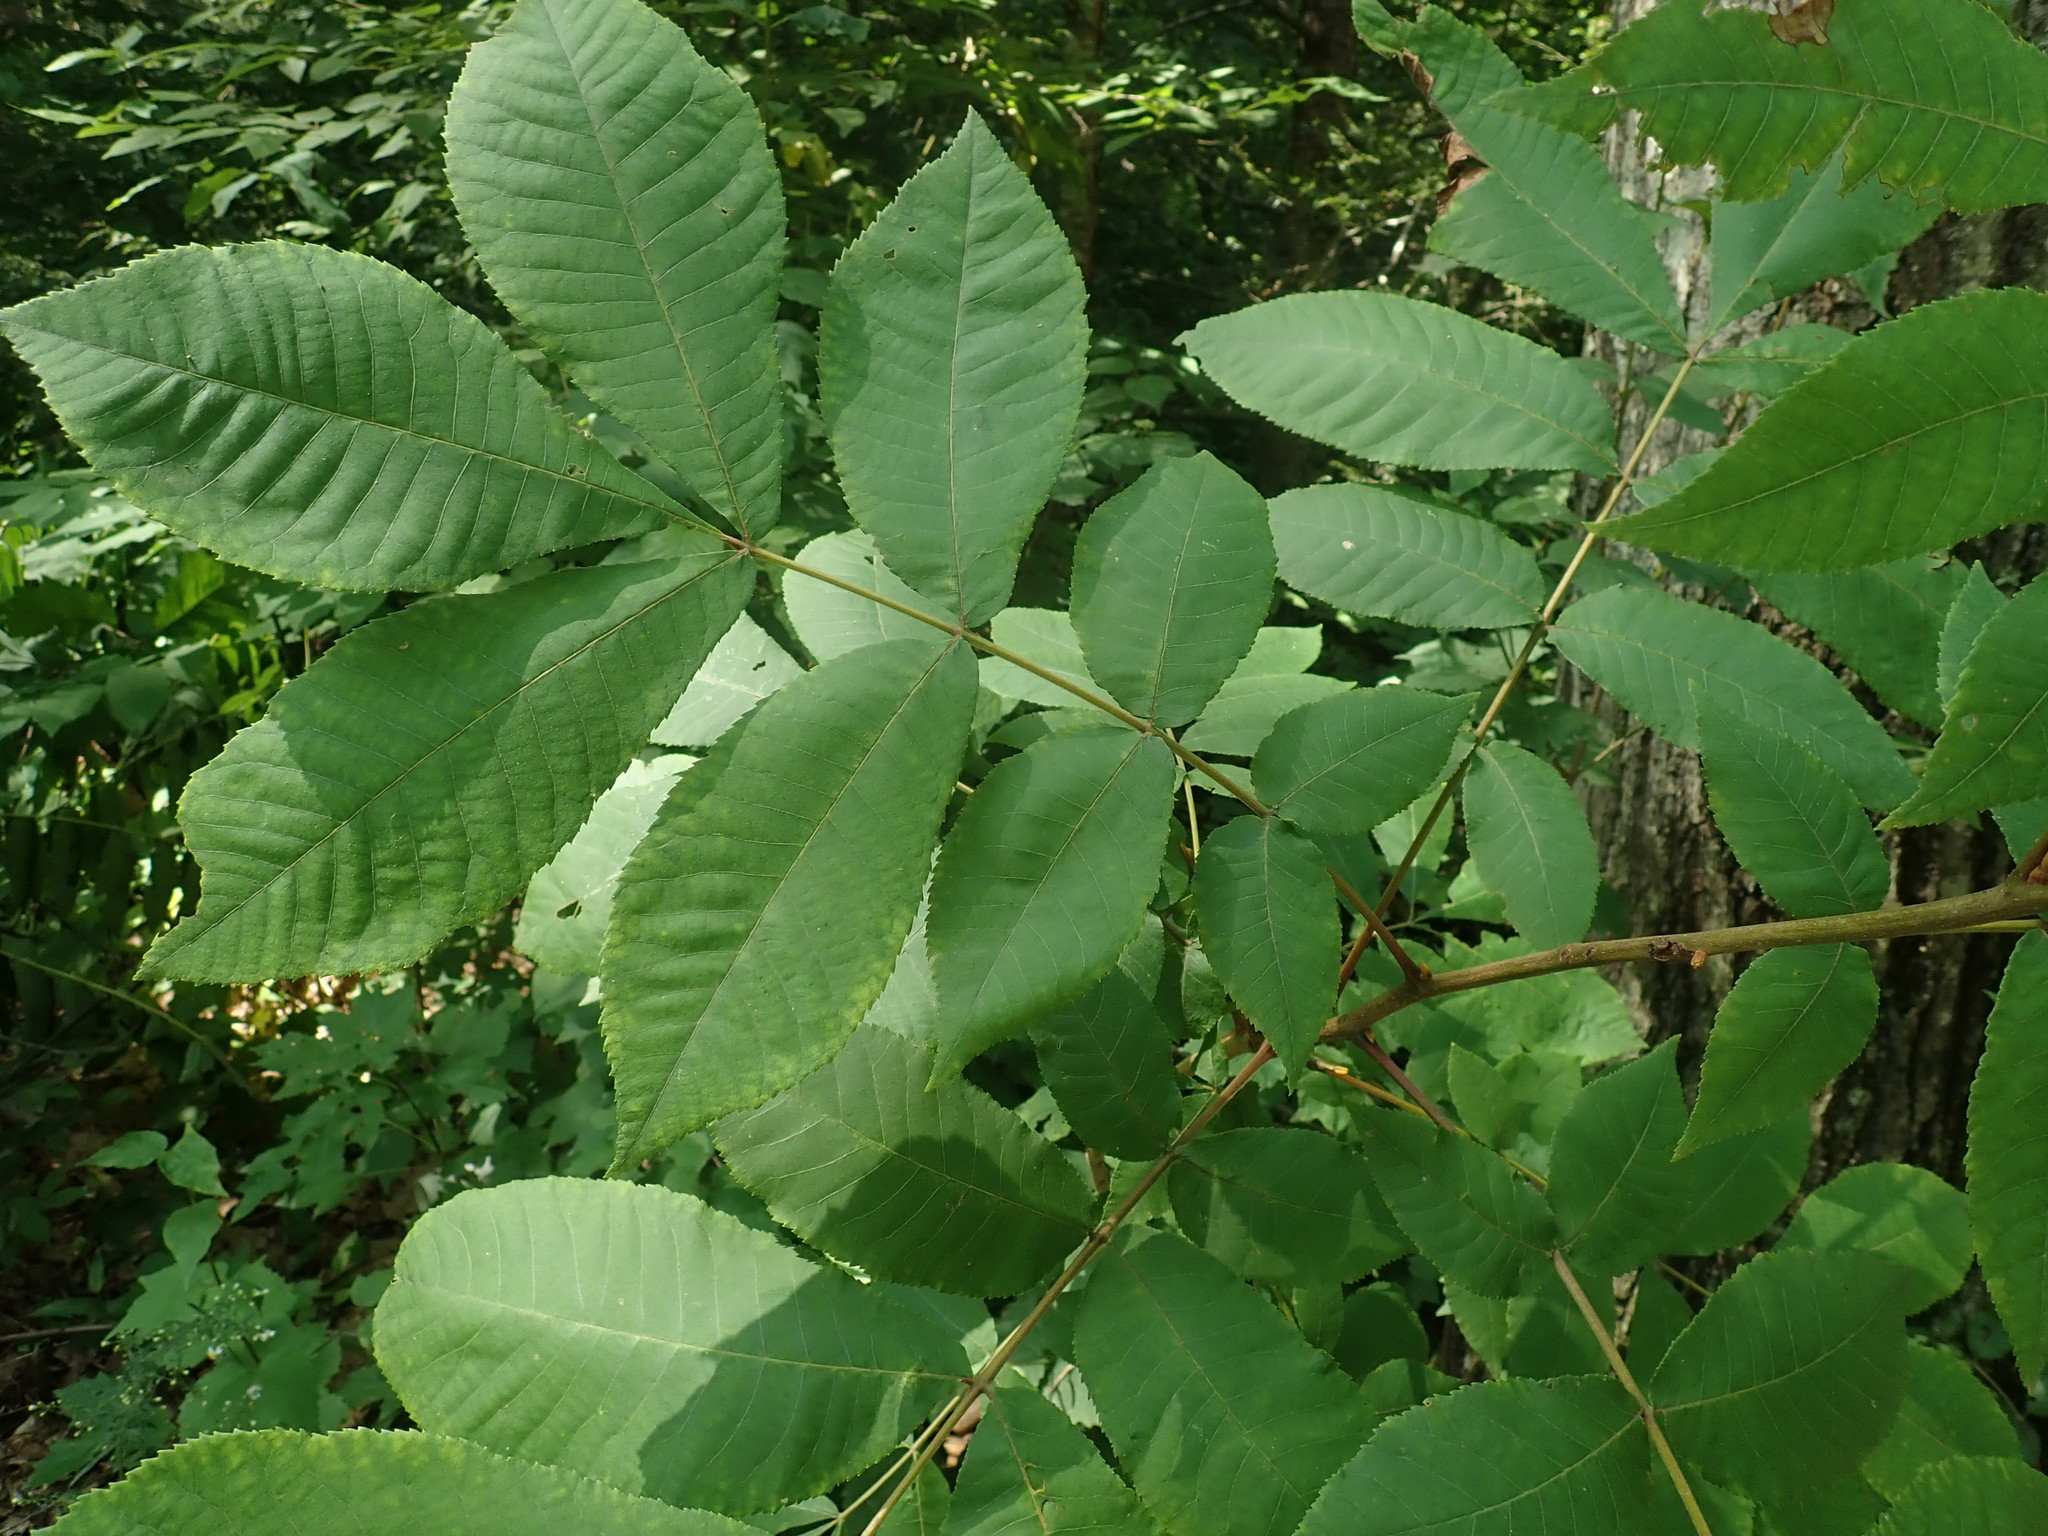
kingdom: Plantae
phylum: Tracheophyta
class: Magnoliopsida
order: Fagales
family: Juglandaceae
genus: Carya
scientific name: Carya cordiformis
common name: Bitternut hickory
